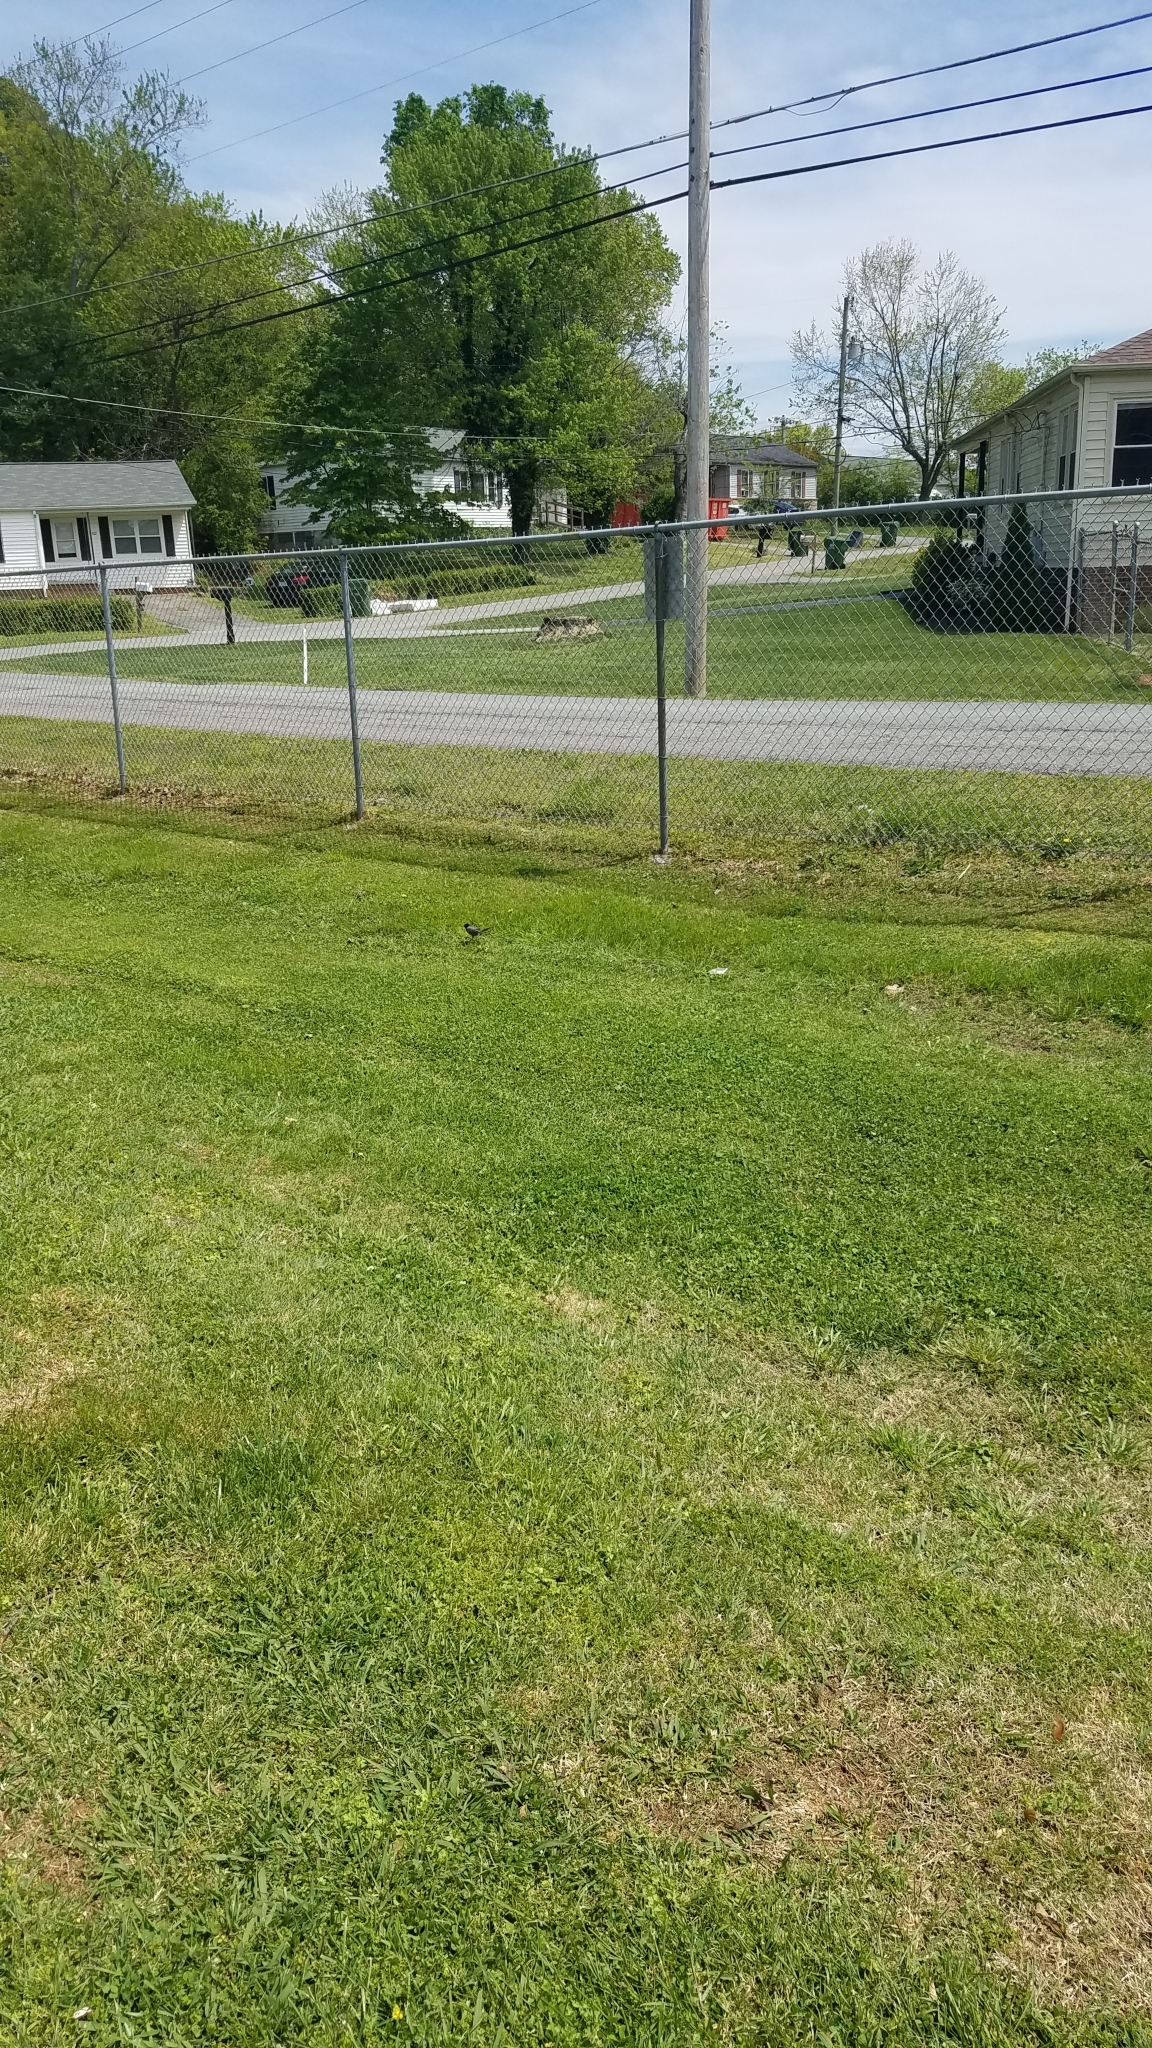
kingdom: Animalia
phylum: Chordata
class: Aves
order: Passeriformes
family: Turdidae
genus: Turdus
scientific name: Turdus migratorius
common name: American robin
